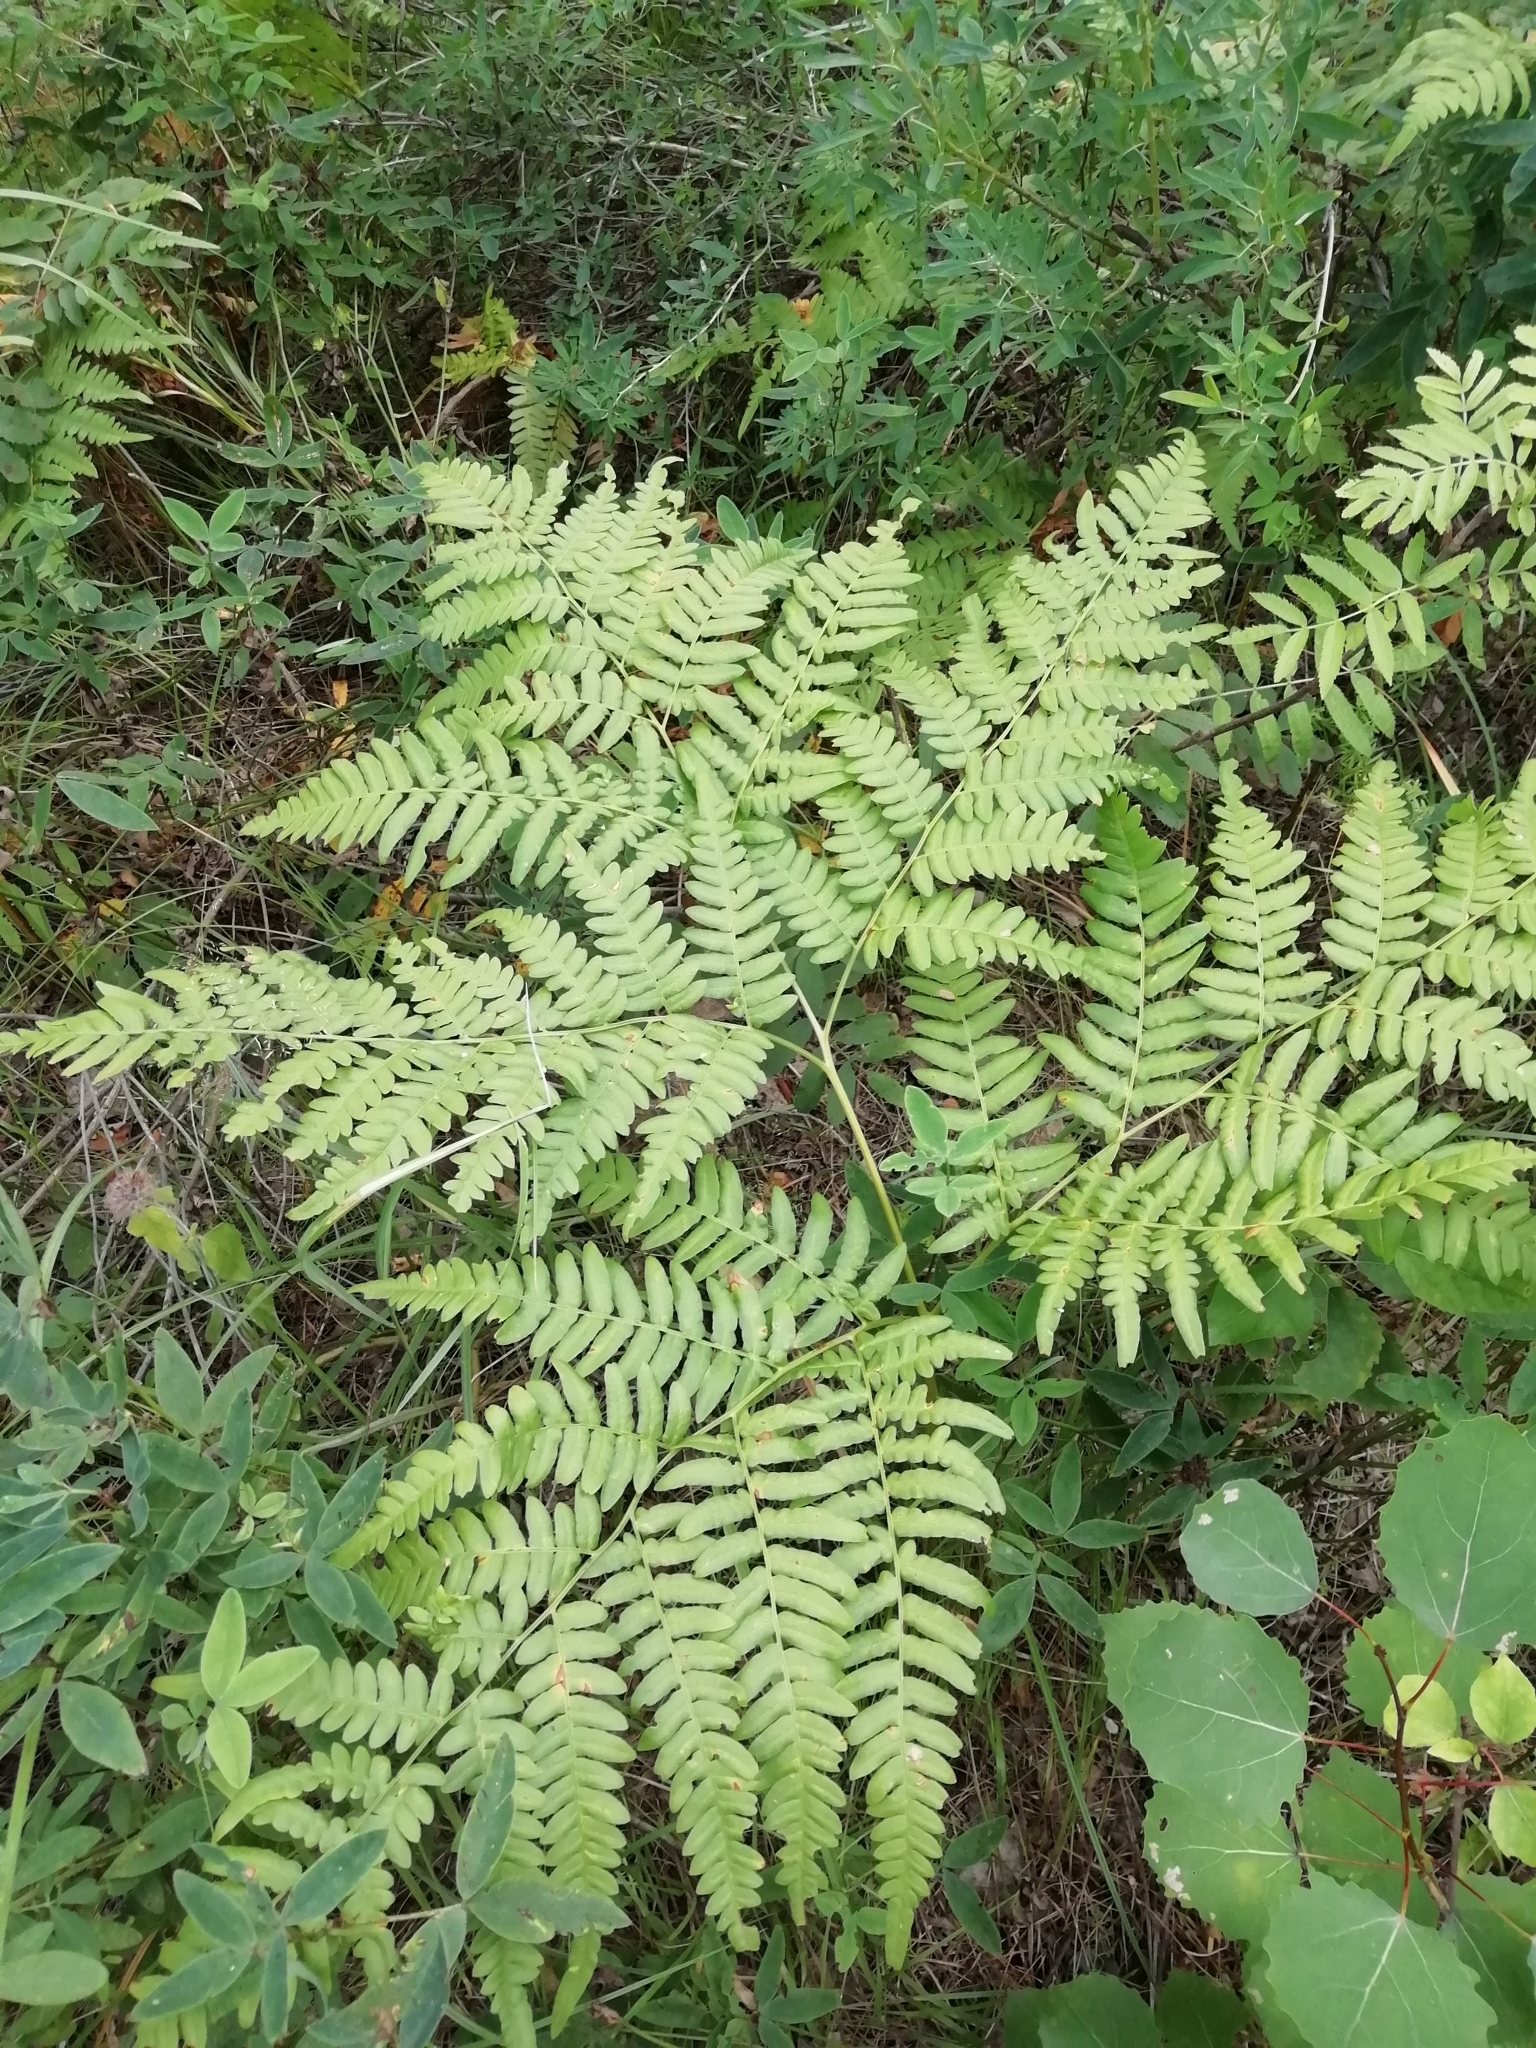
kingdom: Plantae
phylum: Tracheophyta
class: Polypodiopsida
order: Polypodiales
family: Dennstaedtiaceae
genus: Pteridium
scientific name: Pteridium aquilinum
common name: Bracken
